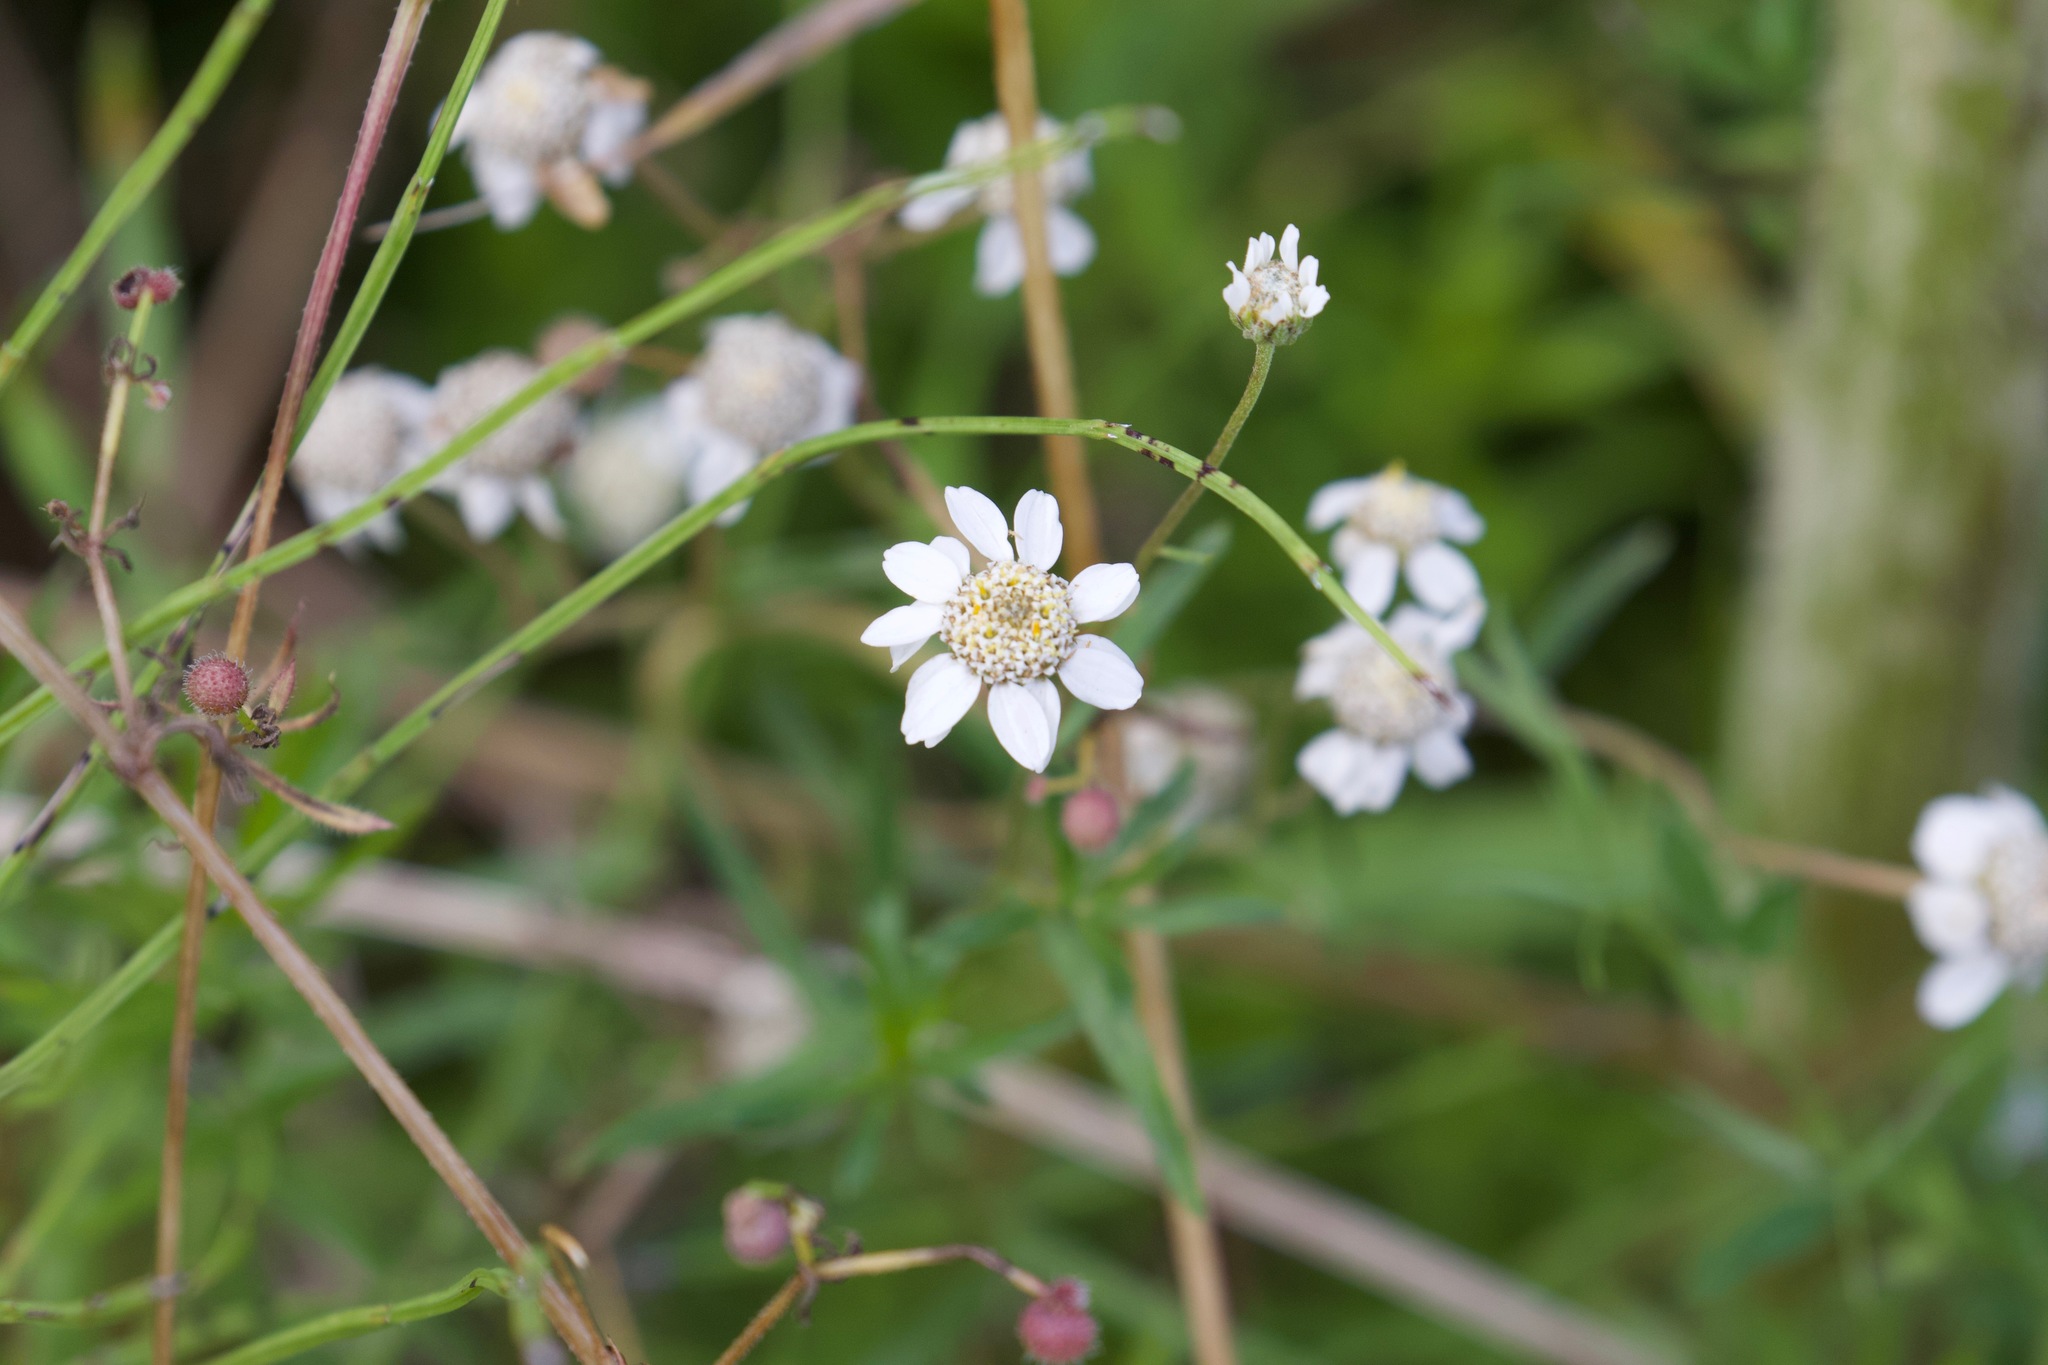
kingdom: Plantae
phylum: Tracheophyta
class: Magnoliopsida
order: Asterales
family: Asteraceae
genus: Achillea
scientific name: Achillea ptarmica
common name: Sneezeweed
